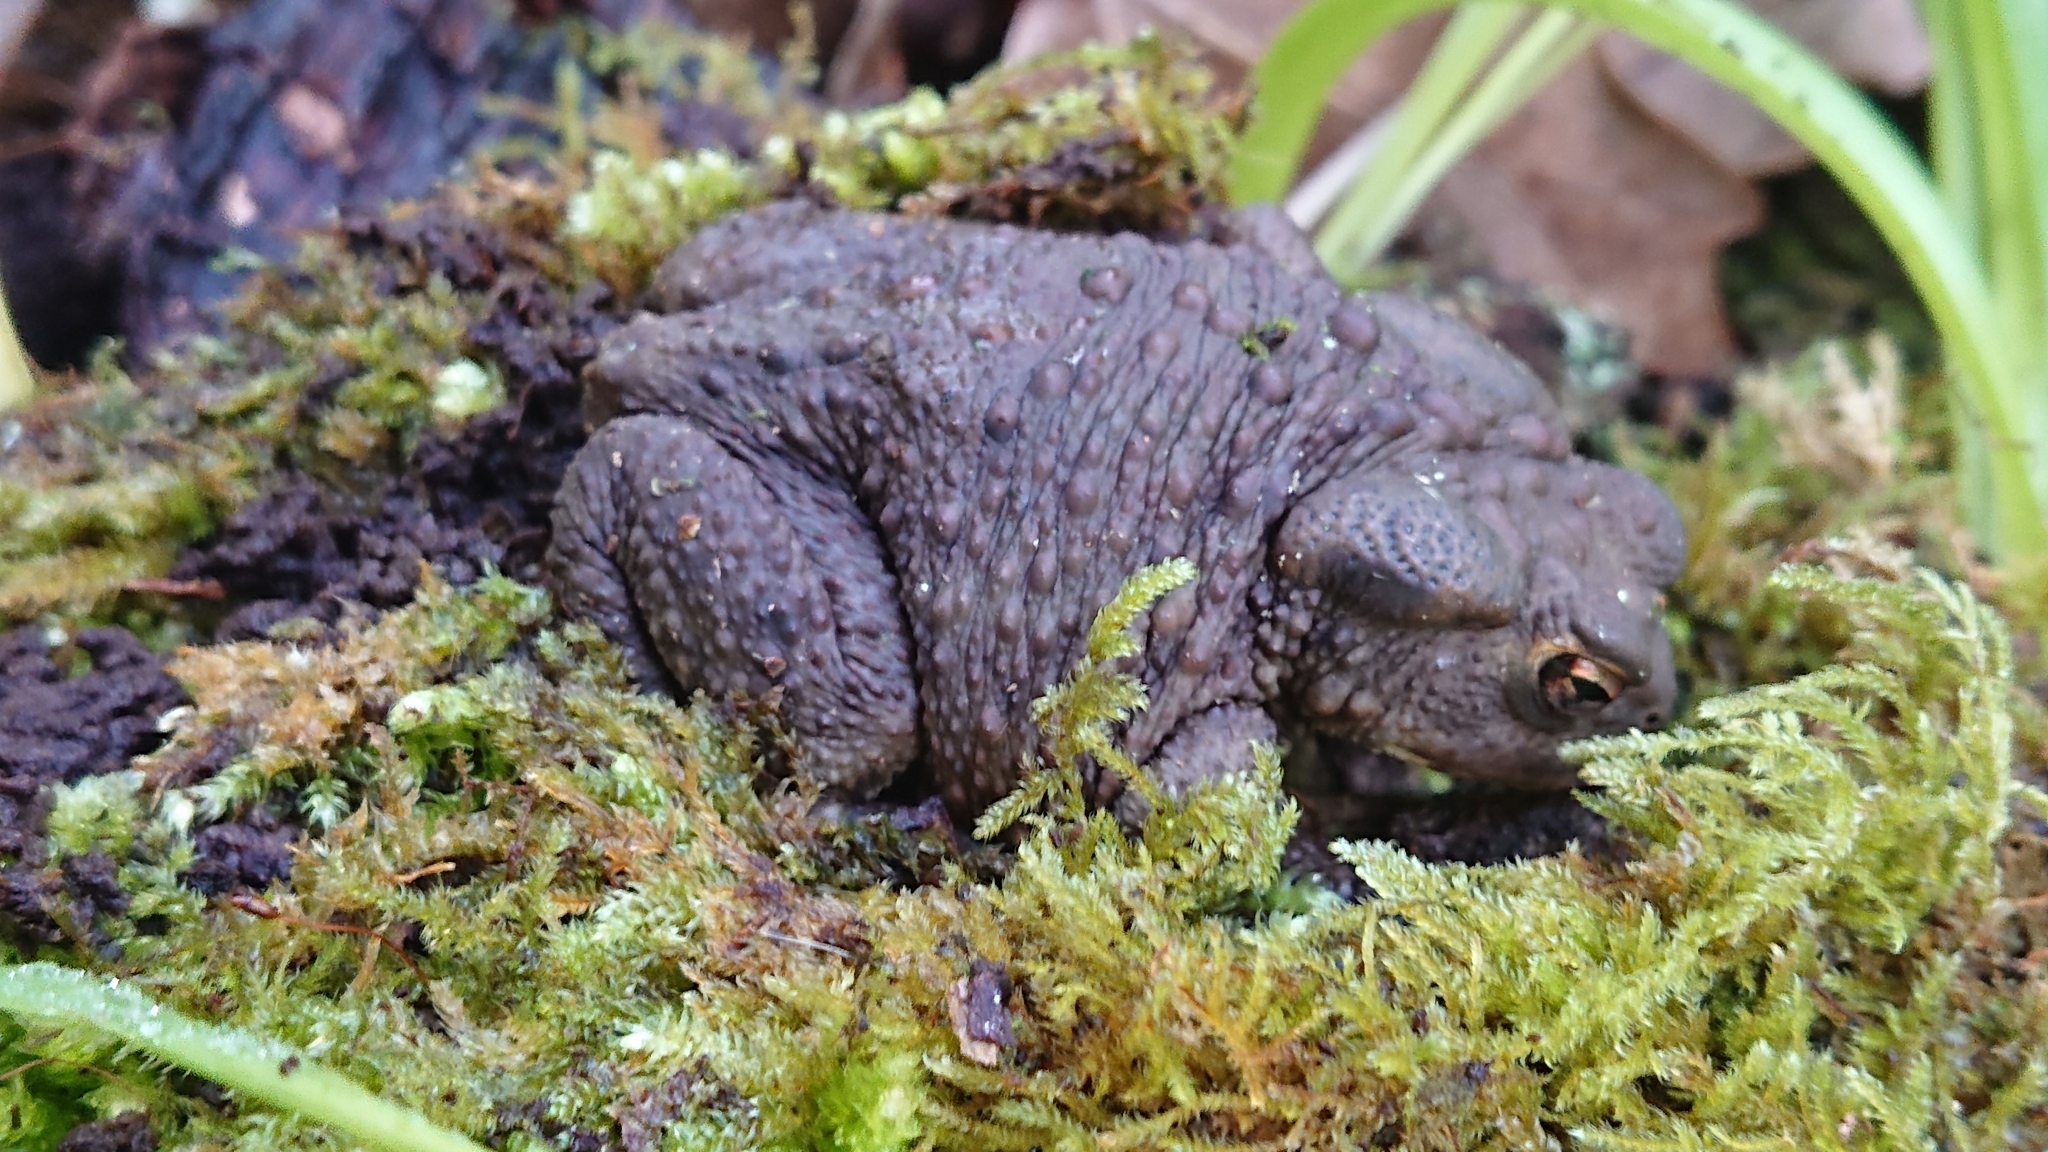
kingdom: Animalia
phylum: Chordata
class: Amphibia
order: Anura
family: Bufonidae
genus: Bufo
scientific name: Bufo bufo
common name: Common toad
